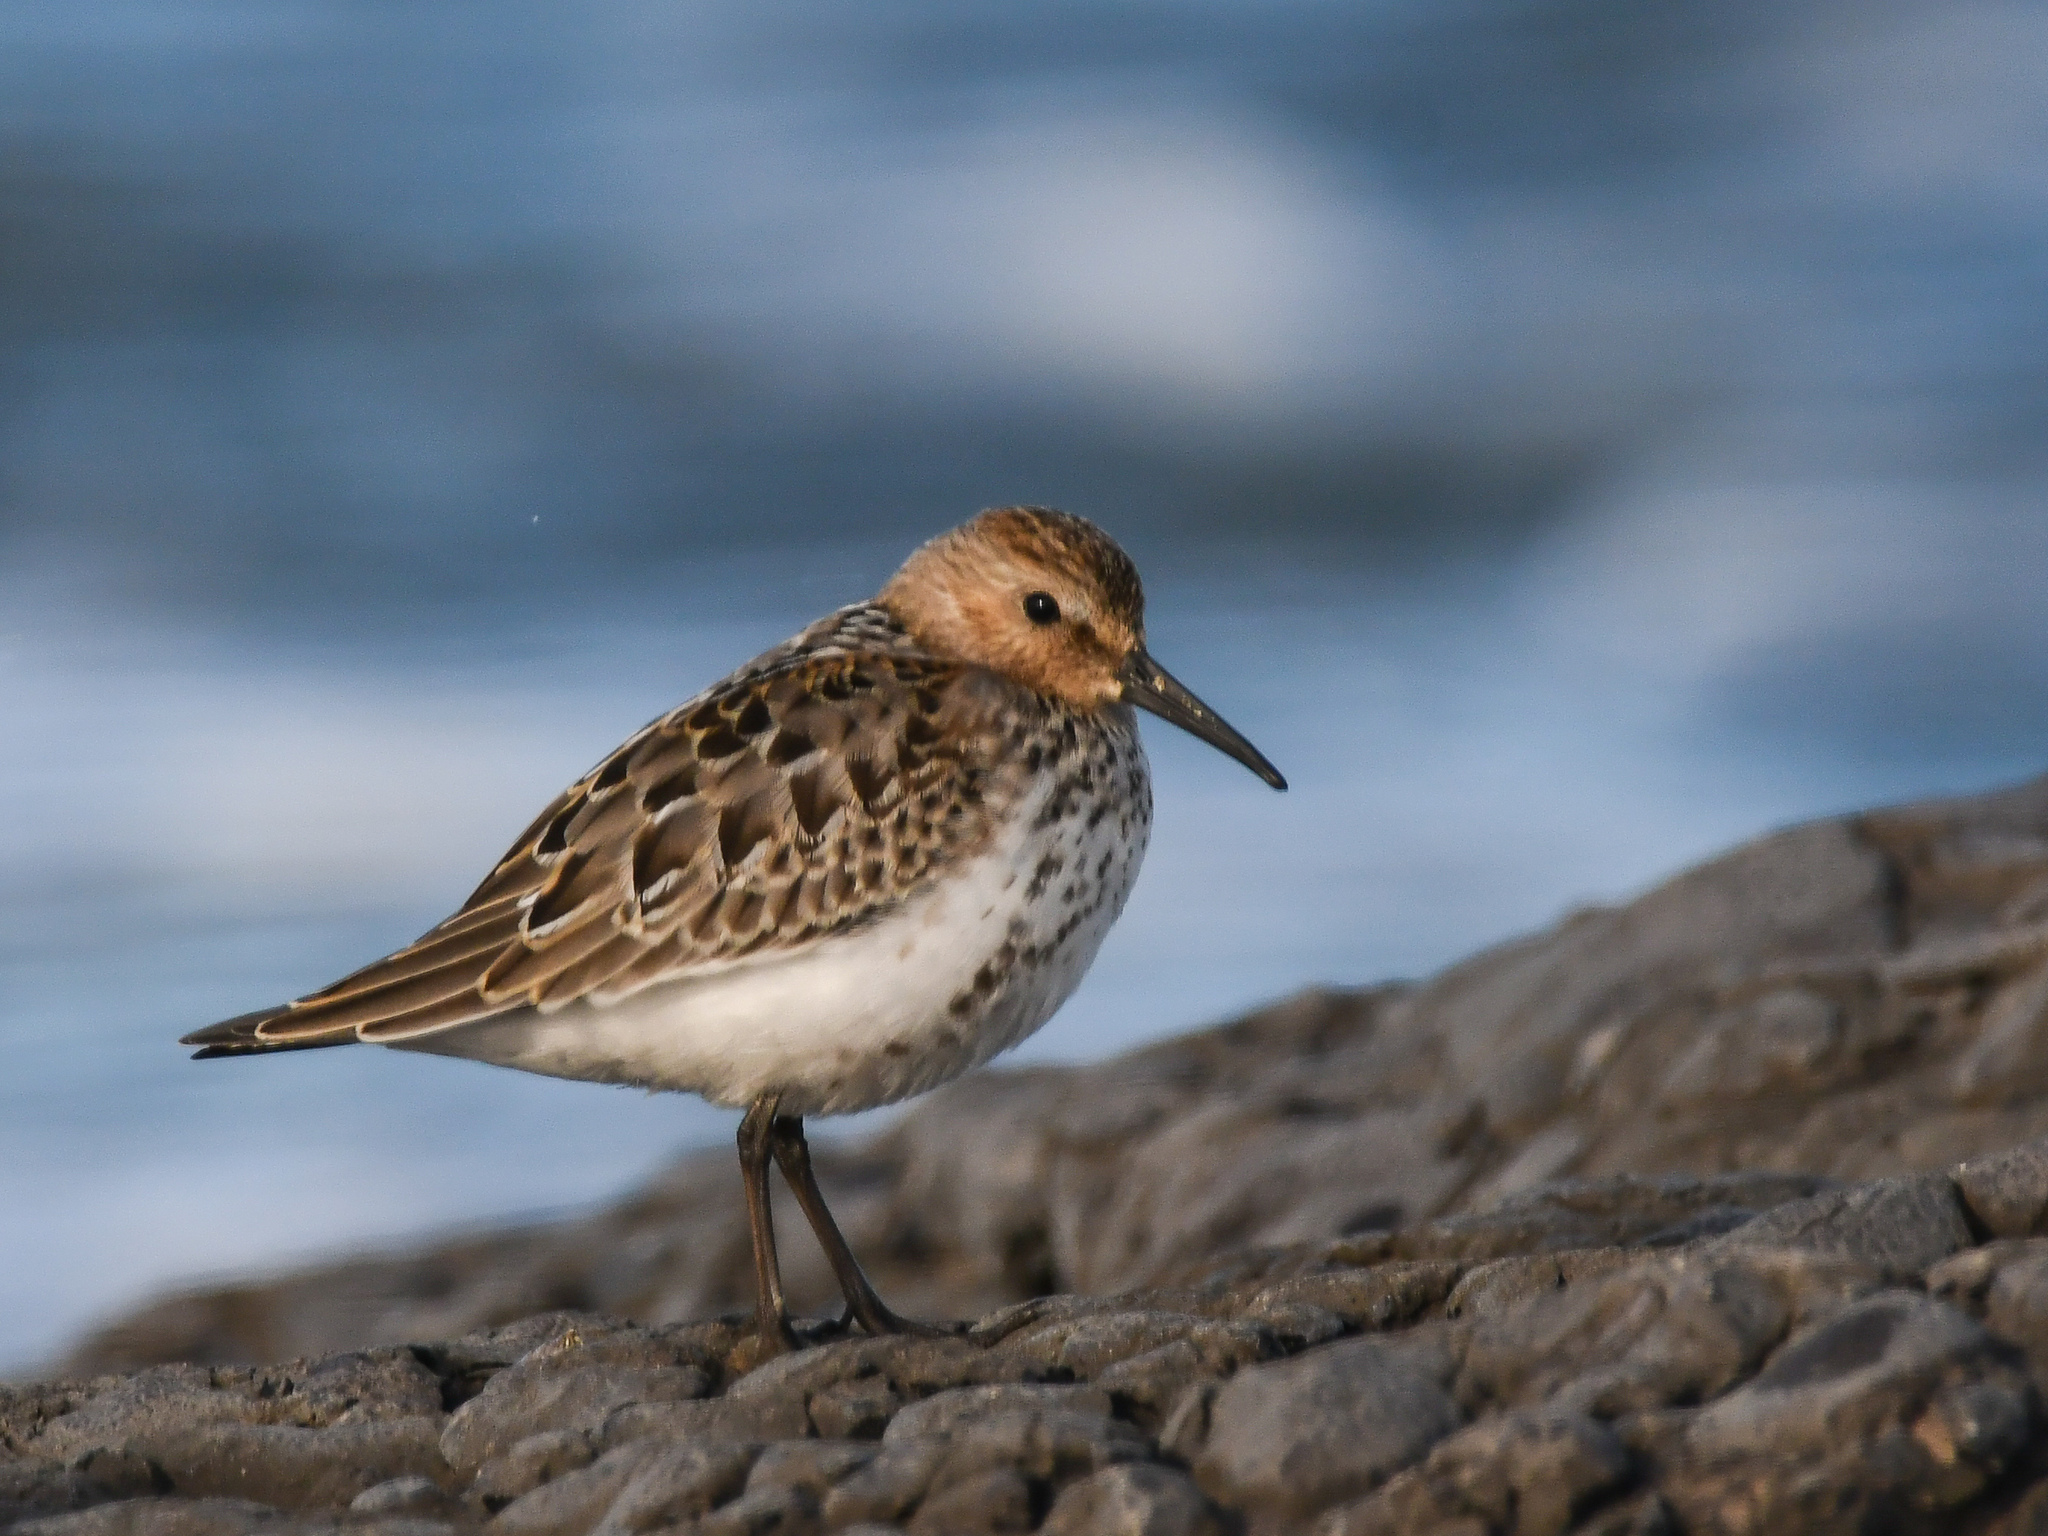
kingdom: Animalia
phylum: Chordata
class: Aves
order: Charadriiformes
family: Scolopacidae
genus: Calidris
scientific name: Calidris alpina
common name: Dunlin
